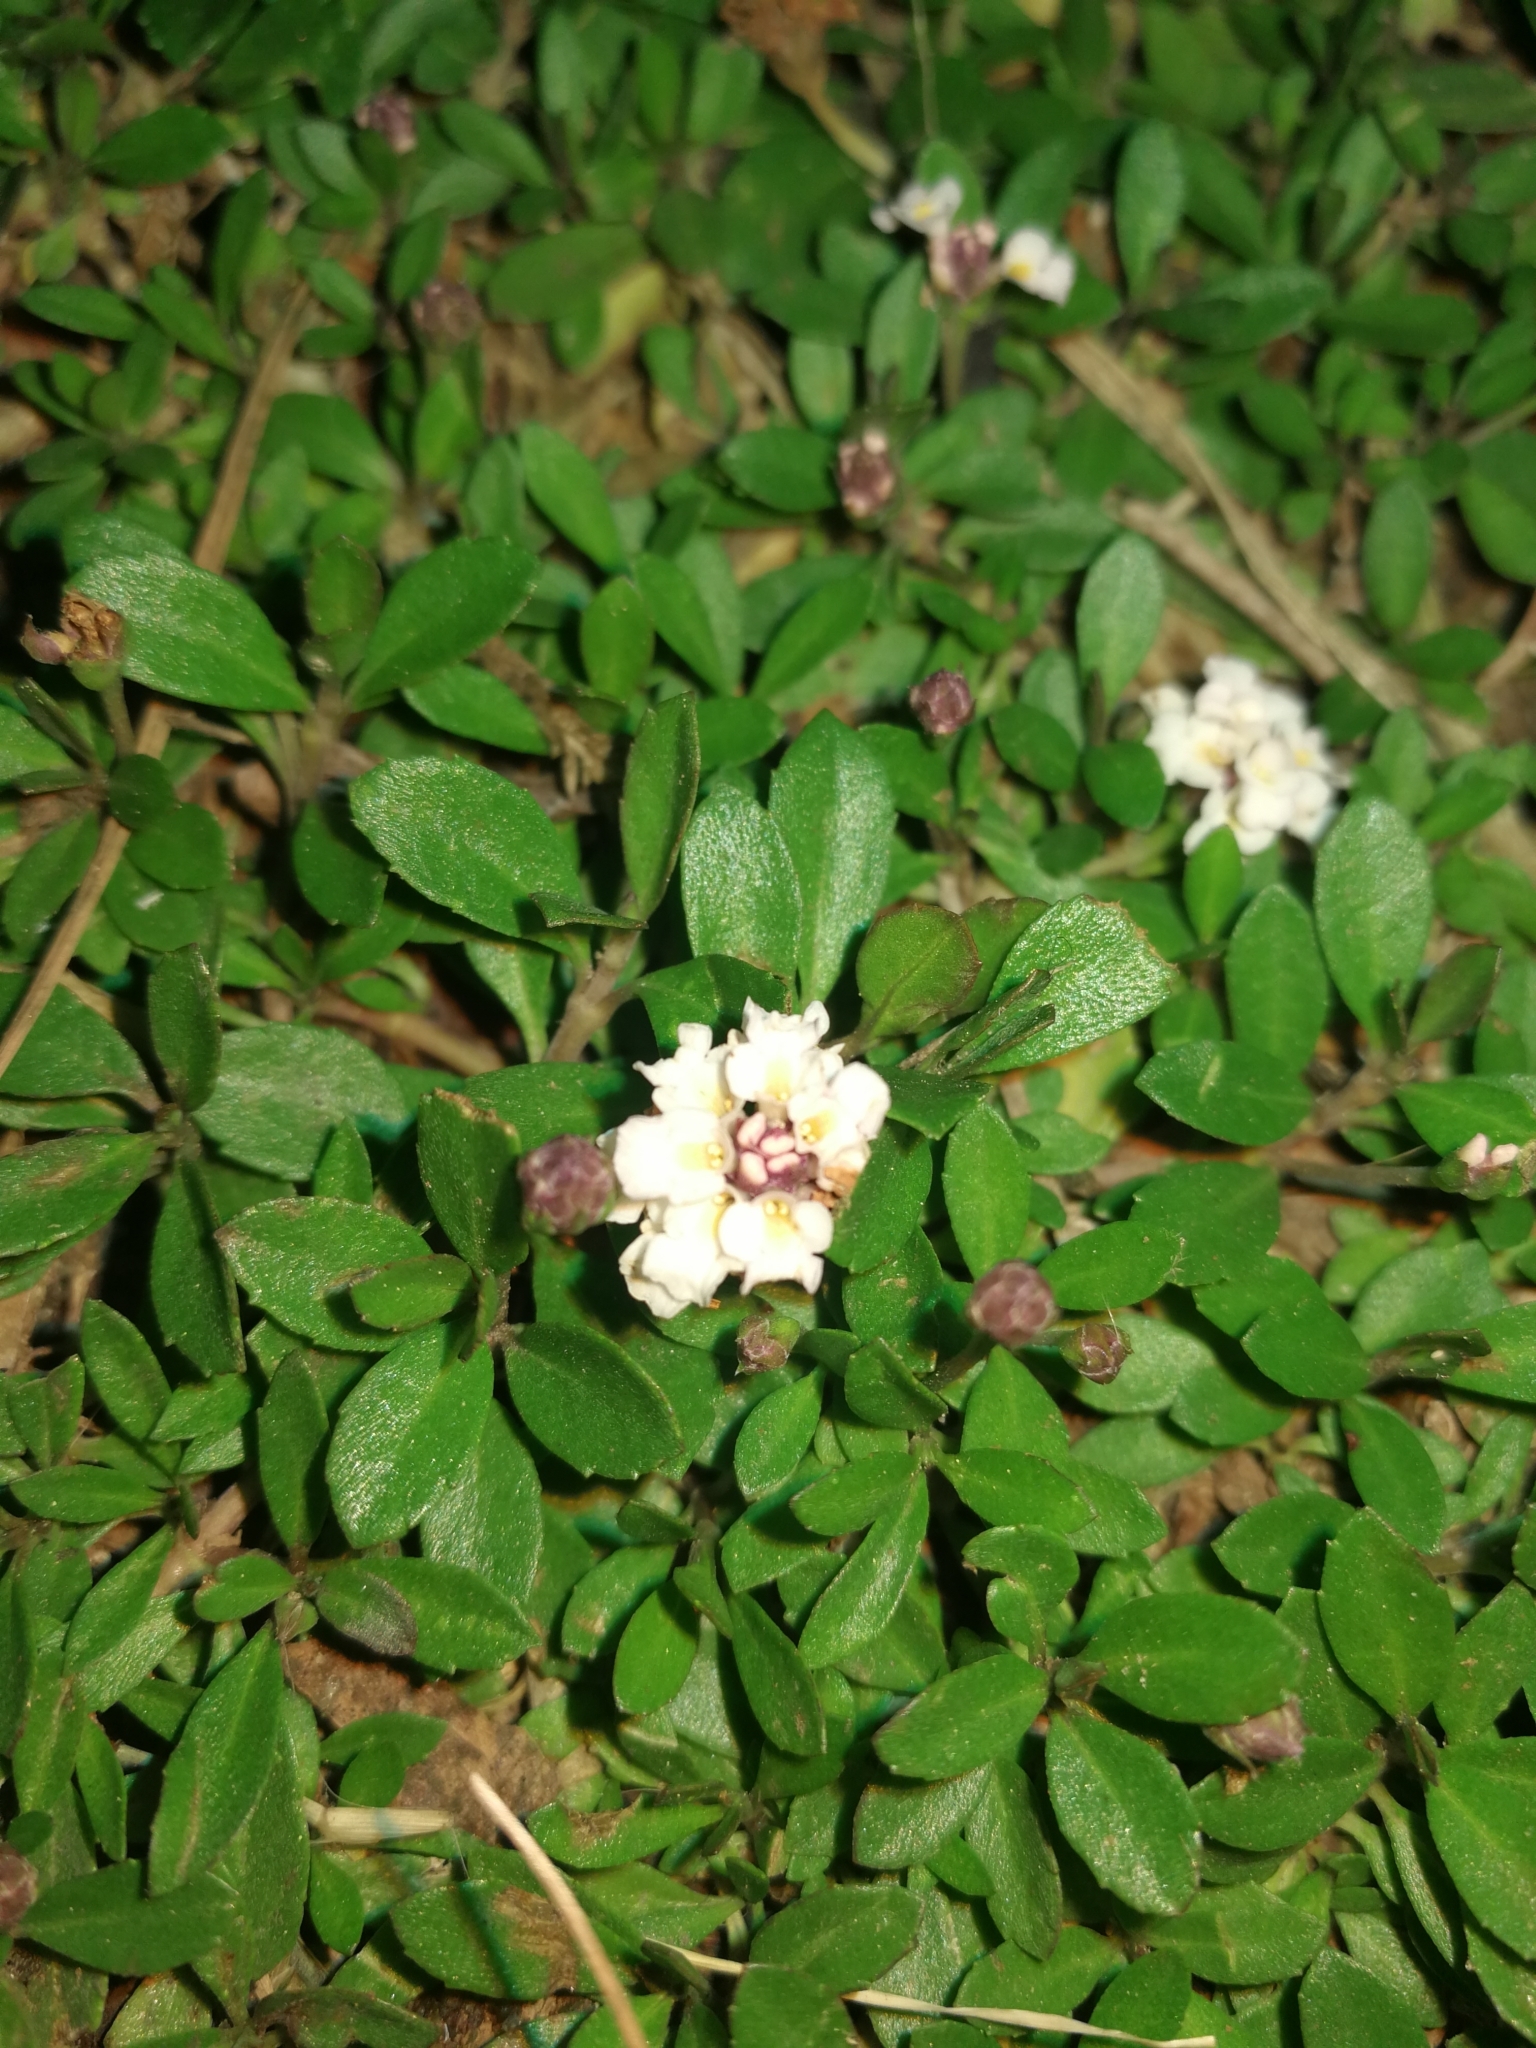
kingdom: Plantae
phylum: Tracheophyta
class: Magnoliopsida
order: Lamiales
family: Verbenaceae
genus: Phyla
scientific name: Phyla nodiflora
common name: Frogfruit
